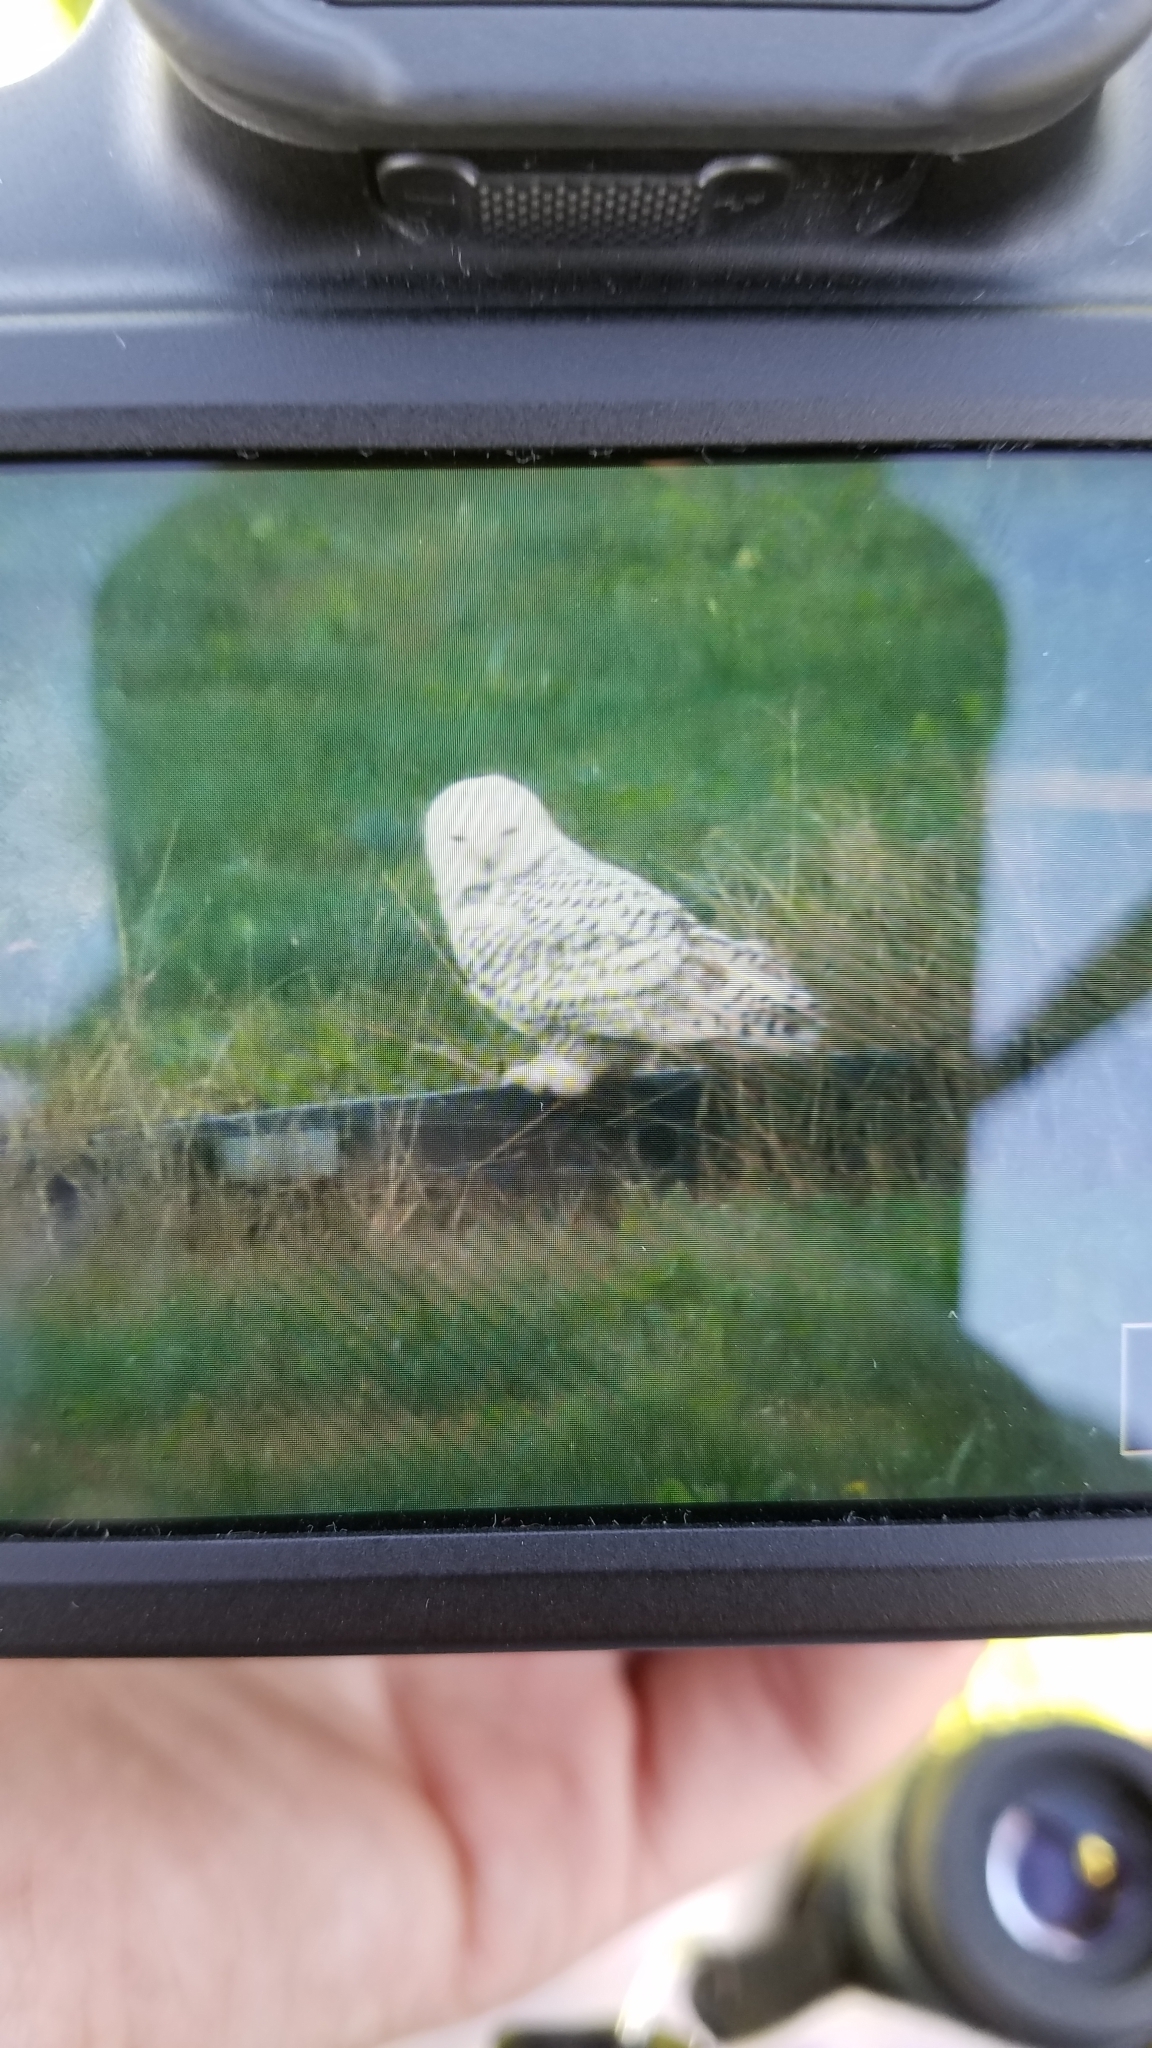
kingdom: Animalia
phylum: Chordata
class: Aves
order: Strigiformes
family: Strigidae
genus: Bubo
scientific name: Bubo scandiacus
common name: Snowy owl
